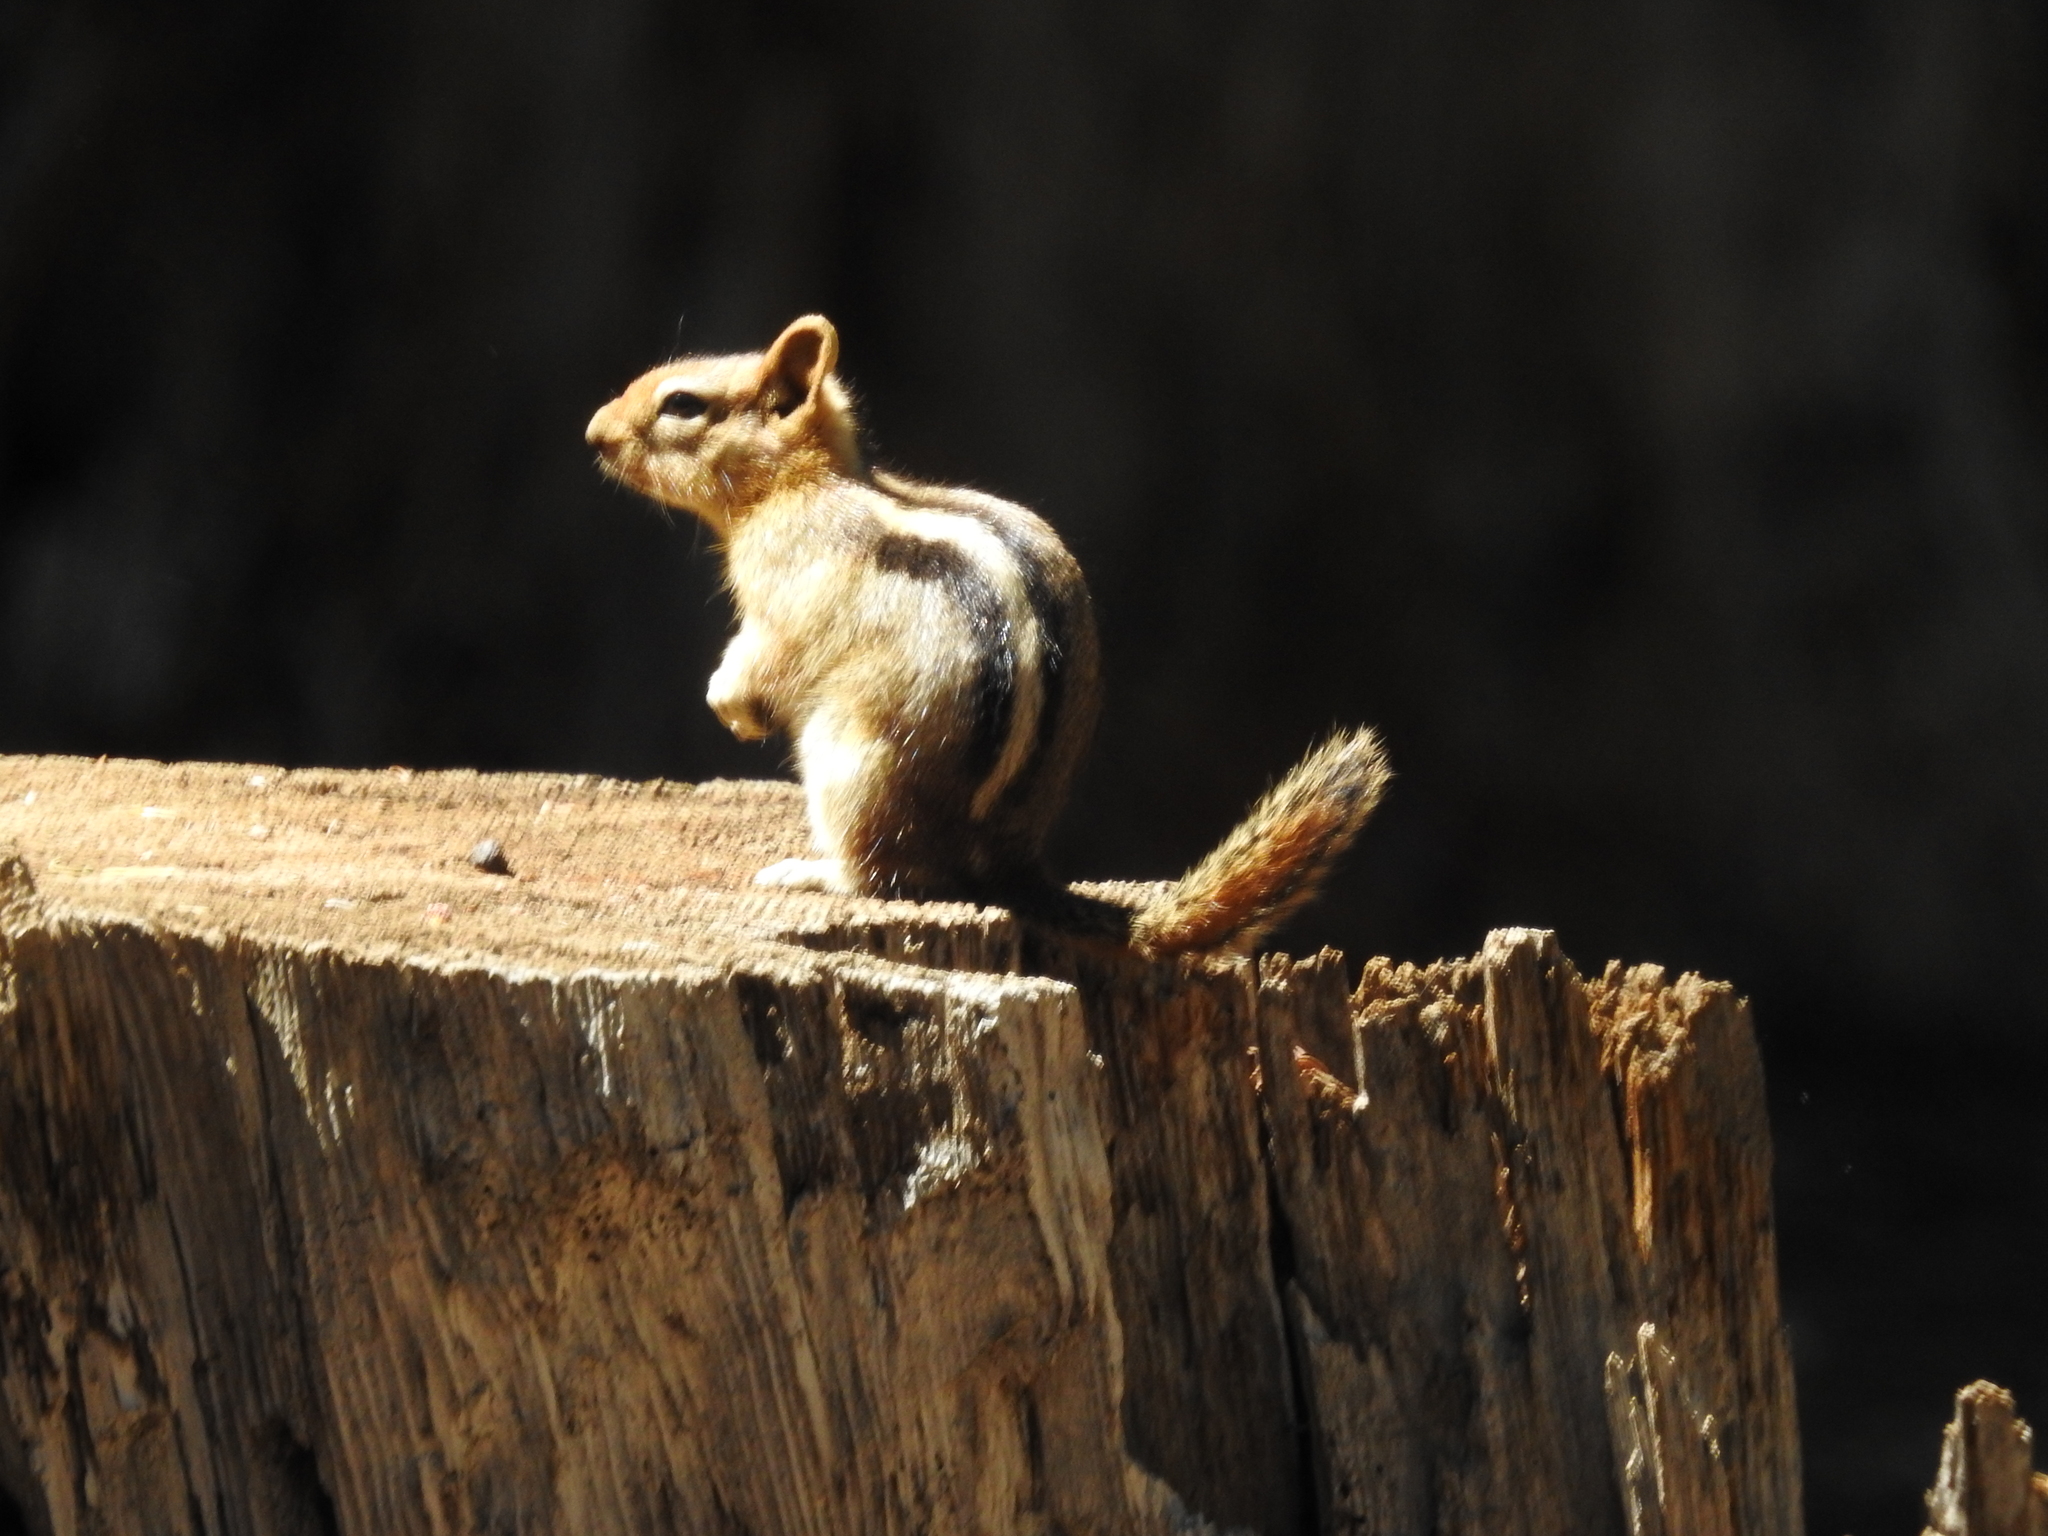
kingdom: Animalia
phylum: Chordata
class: Mammalia
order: Rodentia
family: Sciuridae
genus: Callospermophilus
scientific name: Callospermophilus lateralis
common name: Golden-mantled ground squirrel
